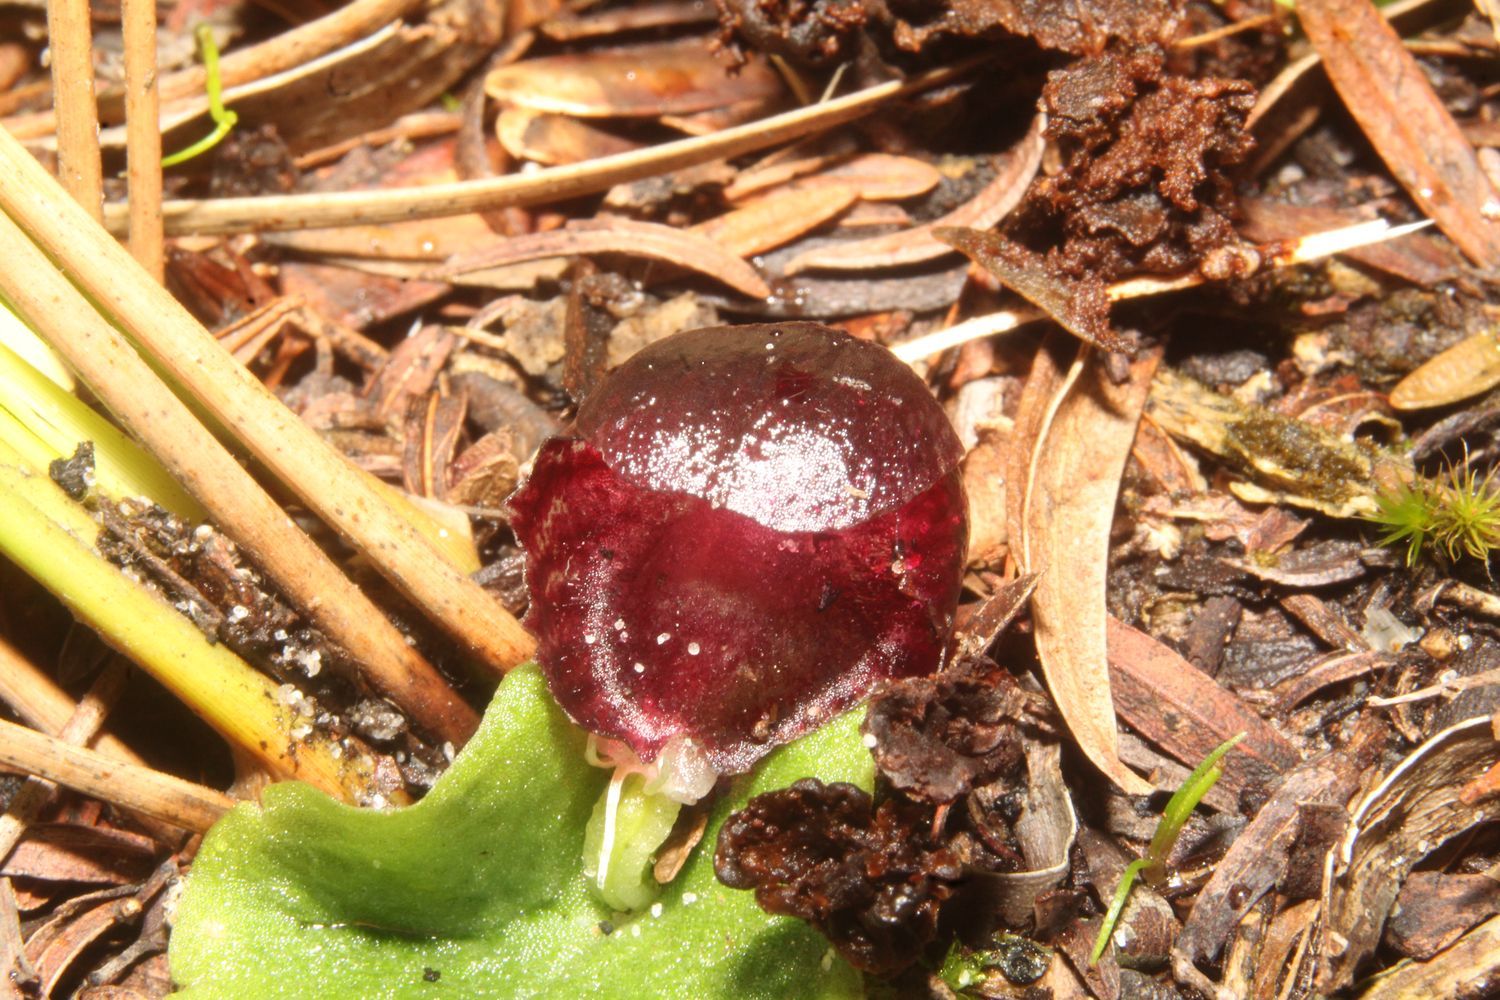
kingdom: Plantae
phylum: Tracheophyta
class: Liliopsida
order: Asparagales
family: Orchidaceae
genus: Corybas
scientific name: Corybas recurvus
